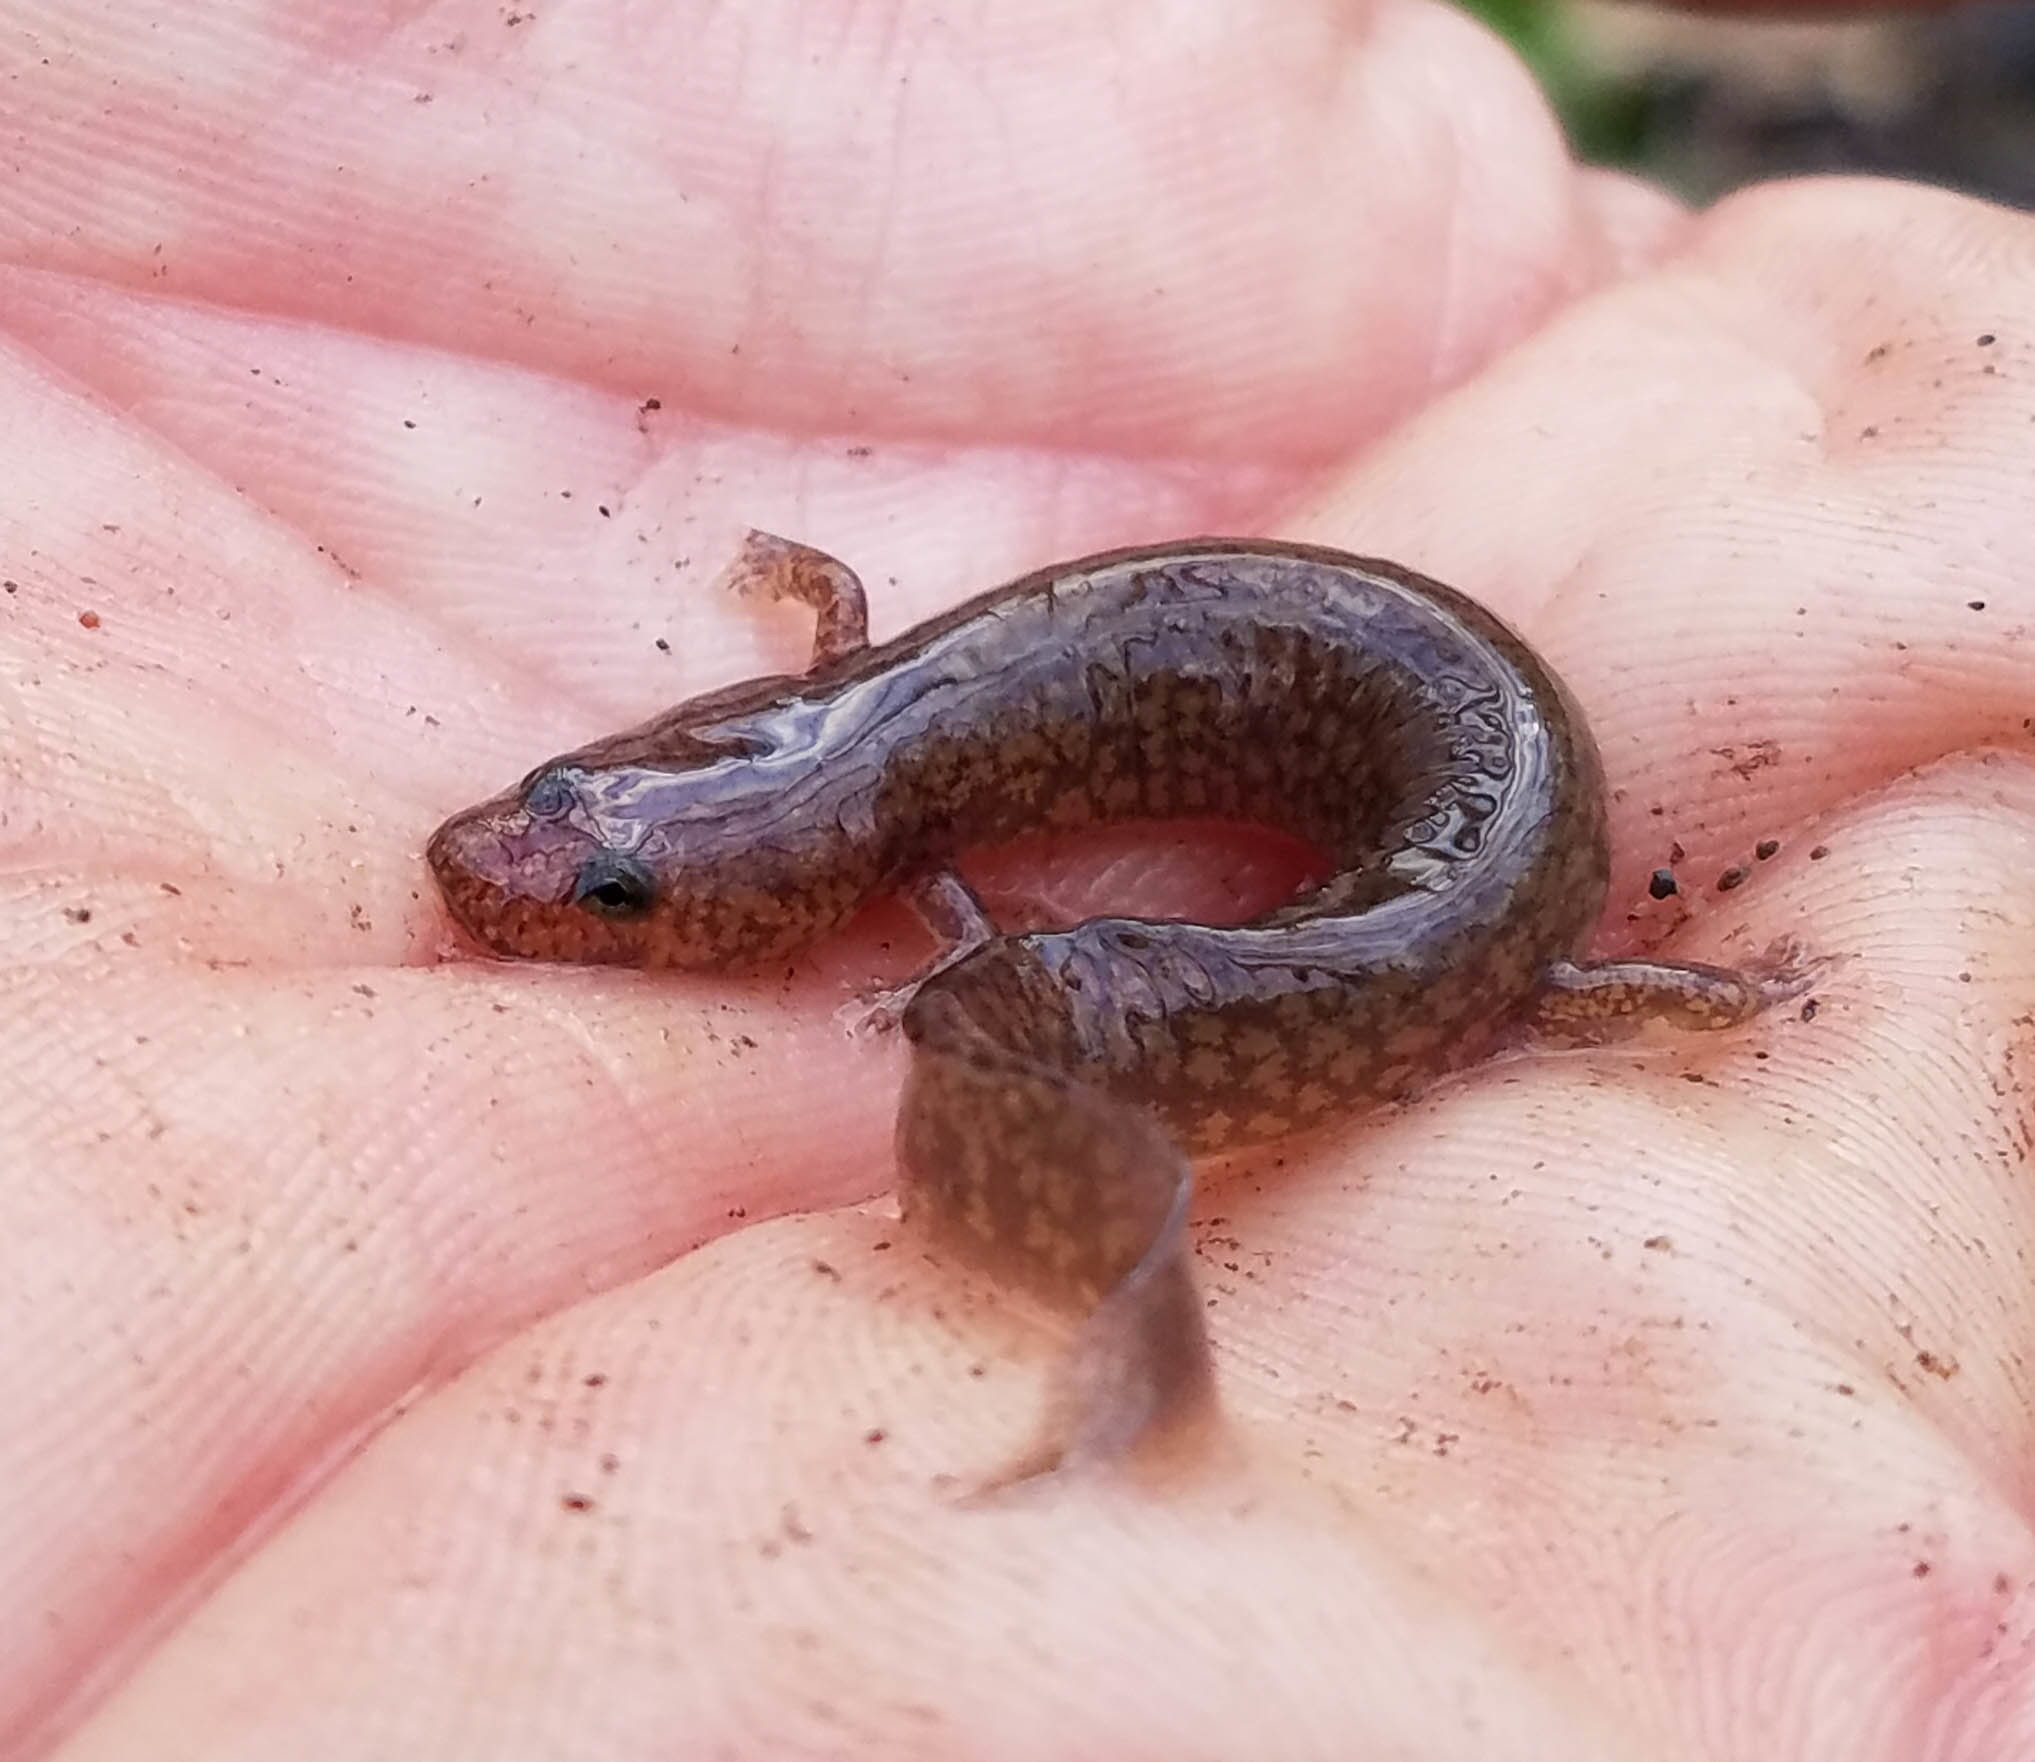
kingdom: Animalia
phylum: Chordata
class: Amphibia
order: Caudata
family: Plethodontidae
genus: Gyrinophilus
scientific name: Gyrinophilus porphyriticus
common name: Spring salamander
